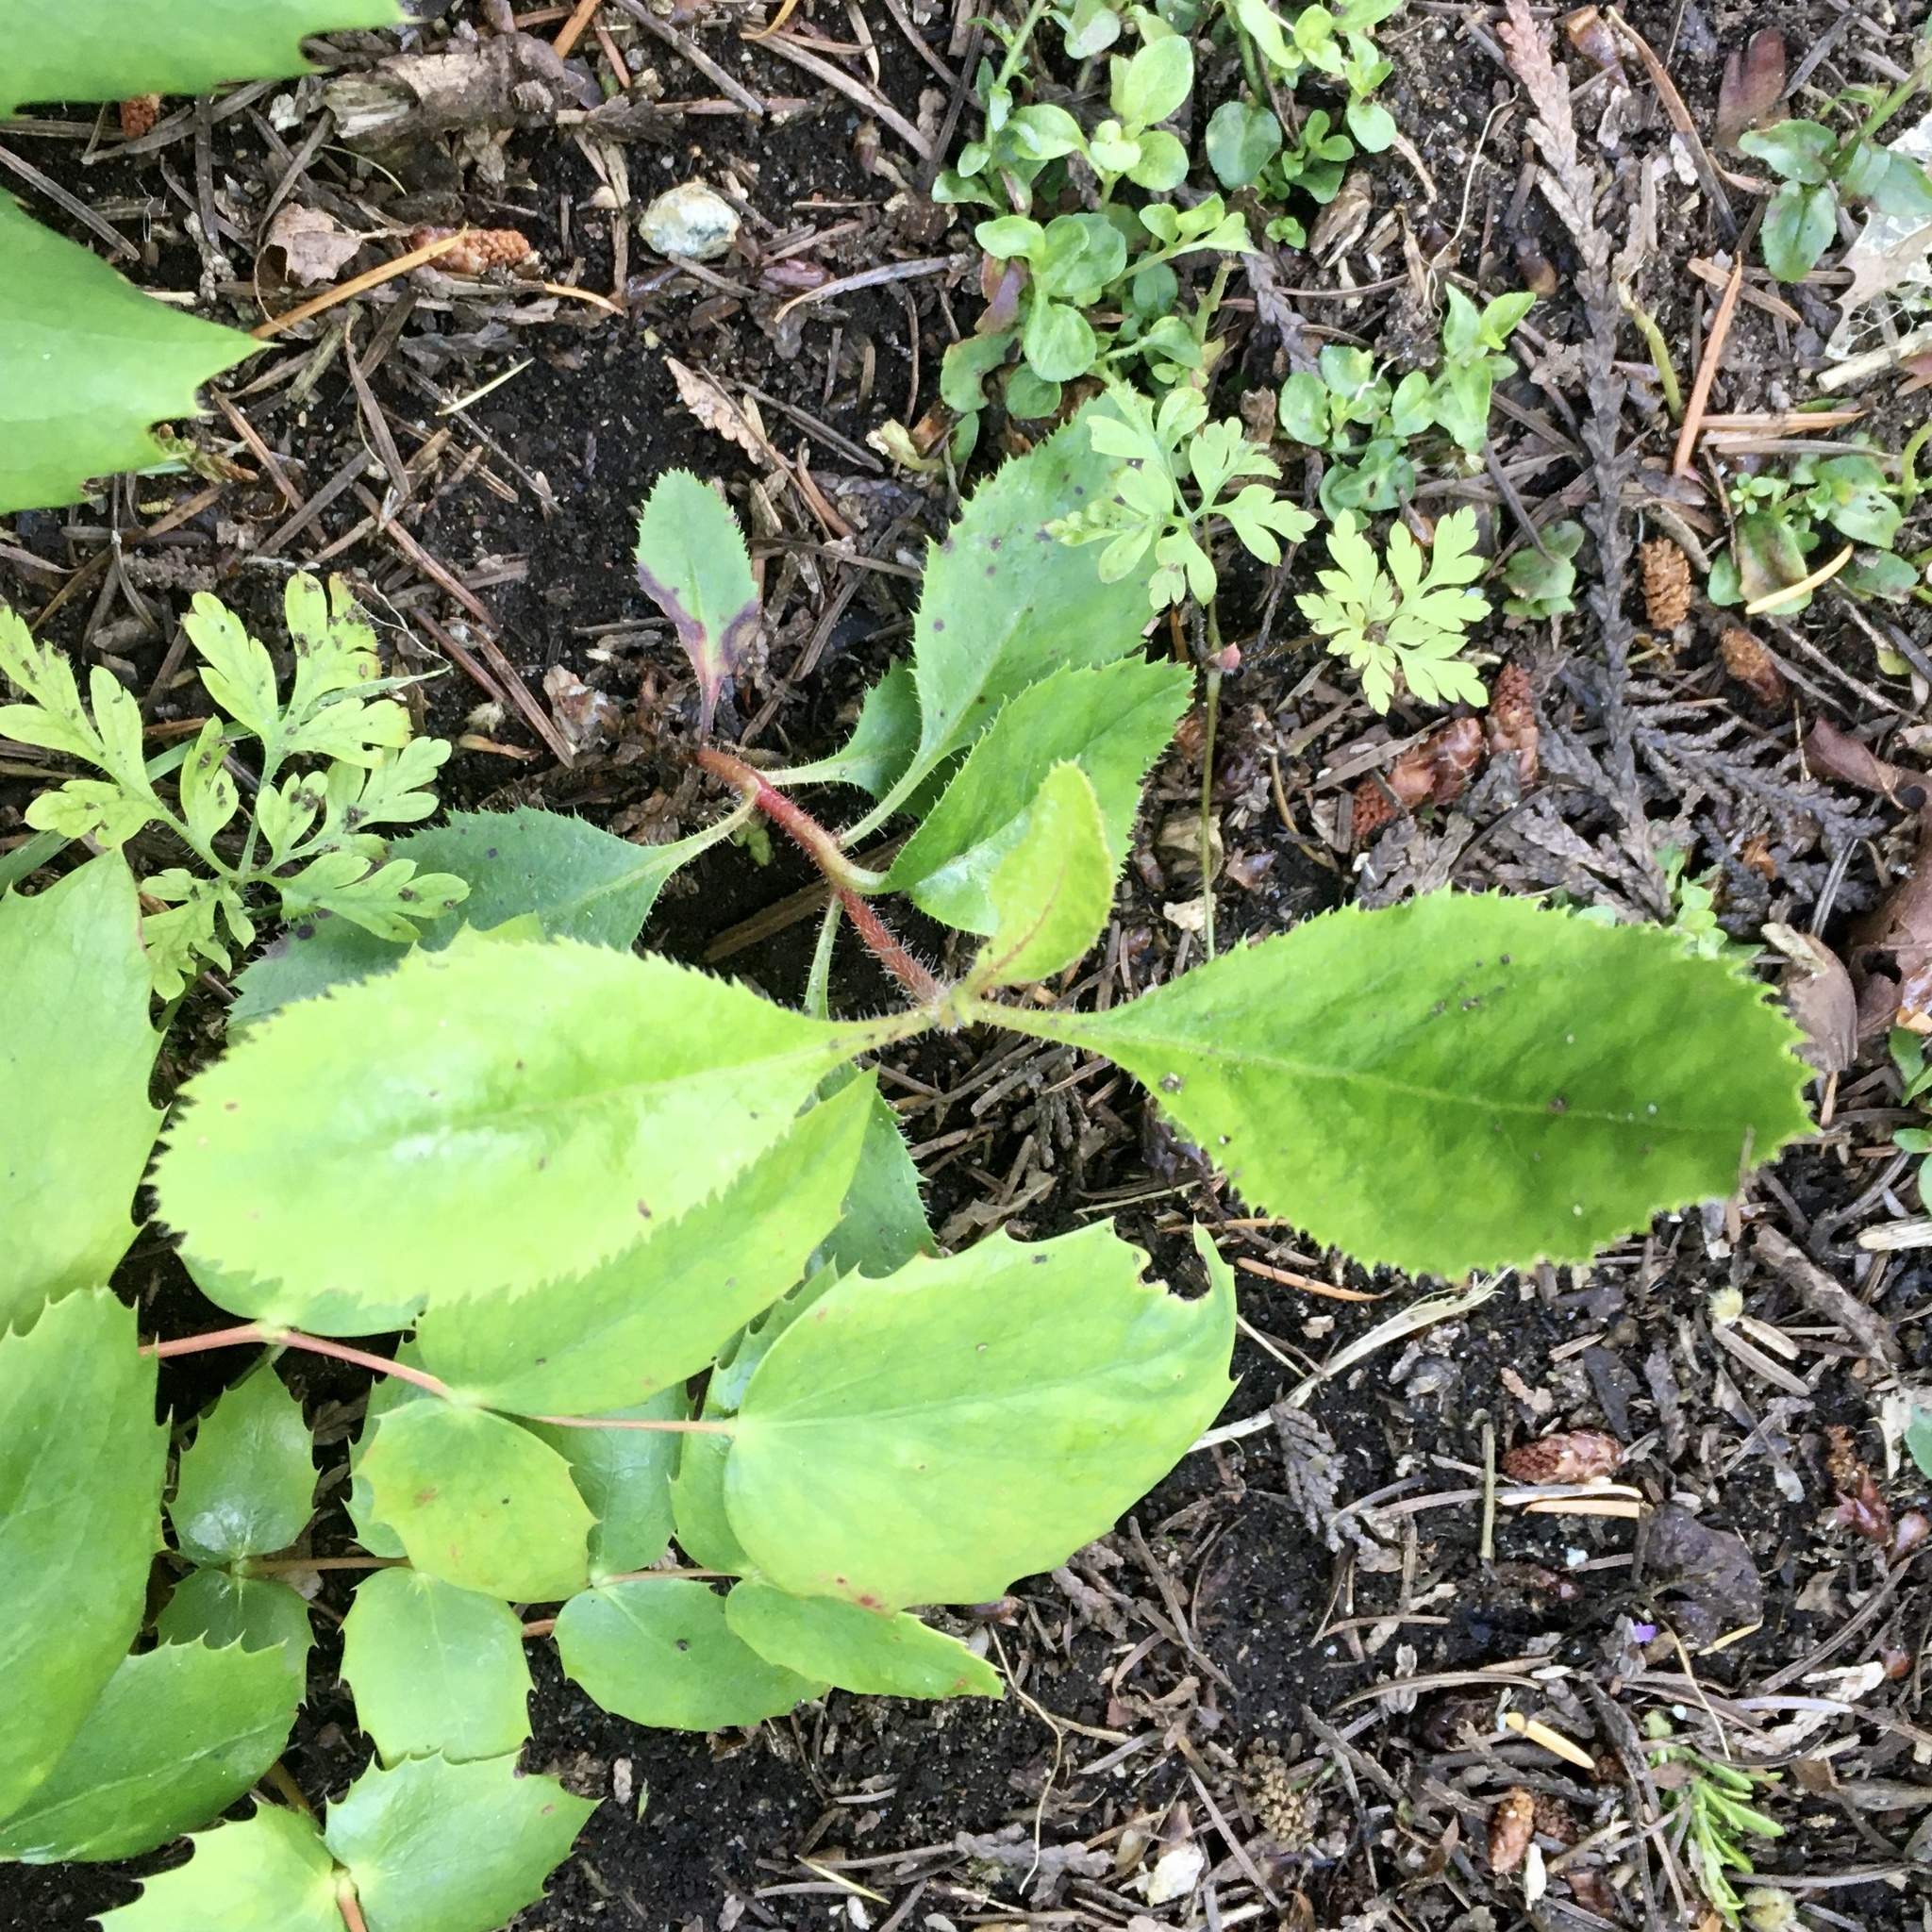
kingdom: Plantae
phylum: Tracheophyta
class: Magnoliopsida
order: Ericales
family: Ericaceae
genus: Arbutus
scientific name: Arbutus menziesii
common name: Pacific madrone
